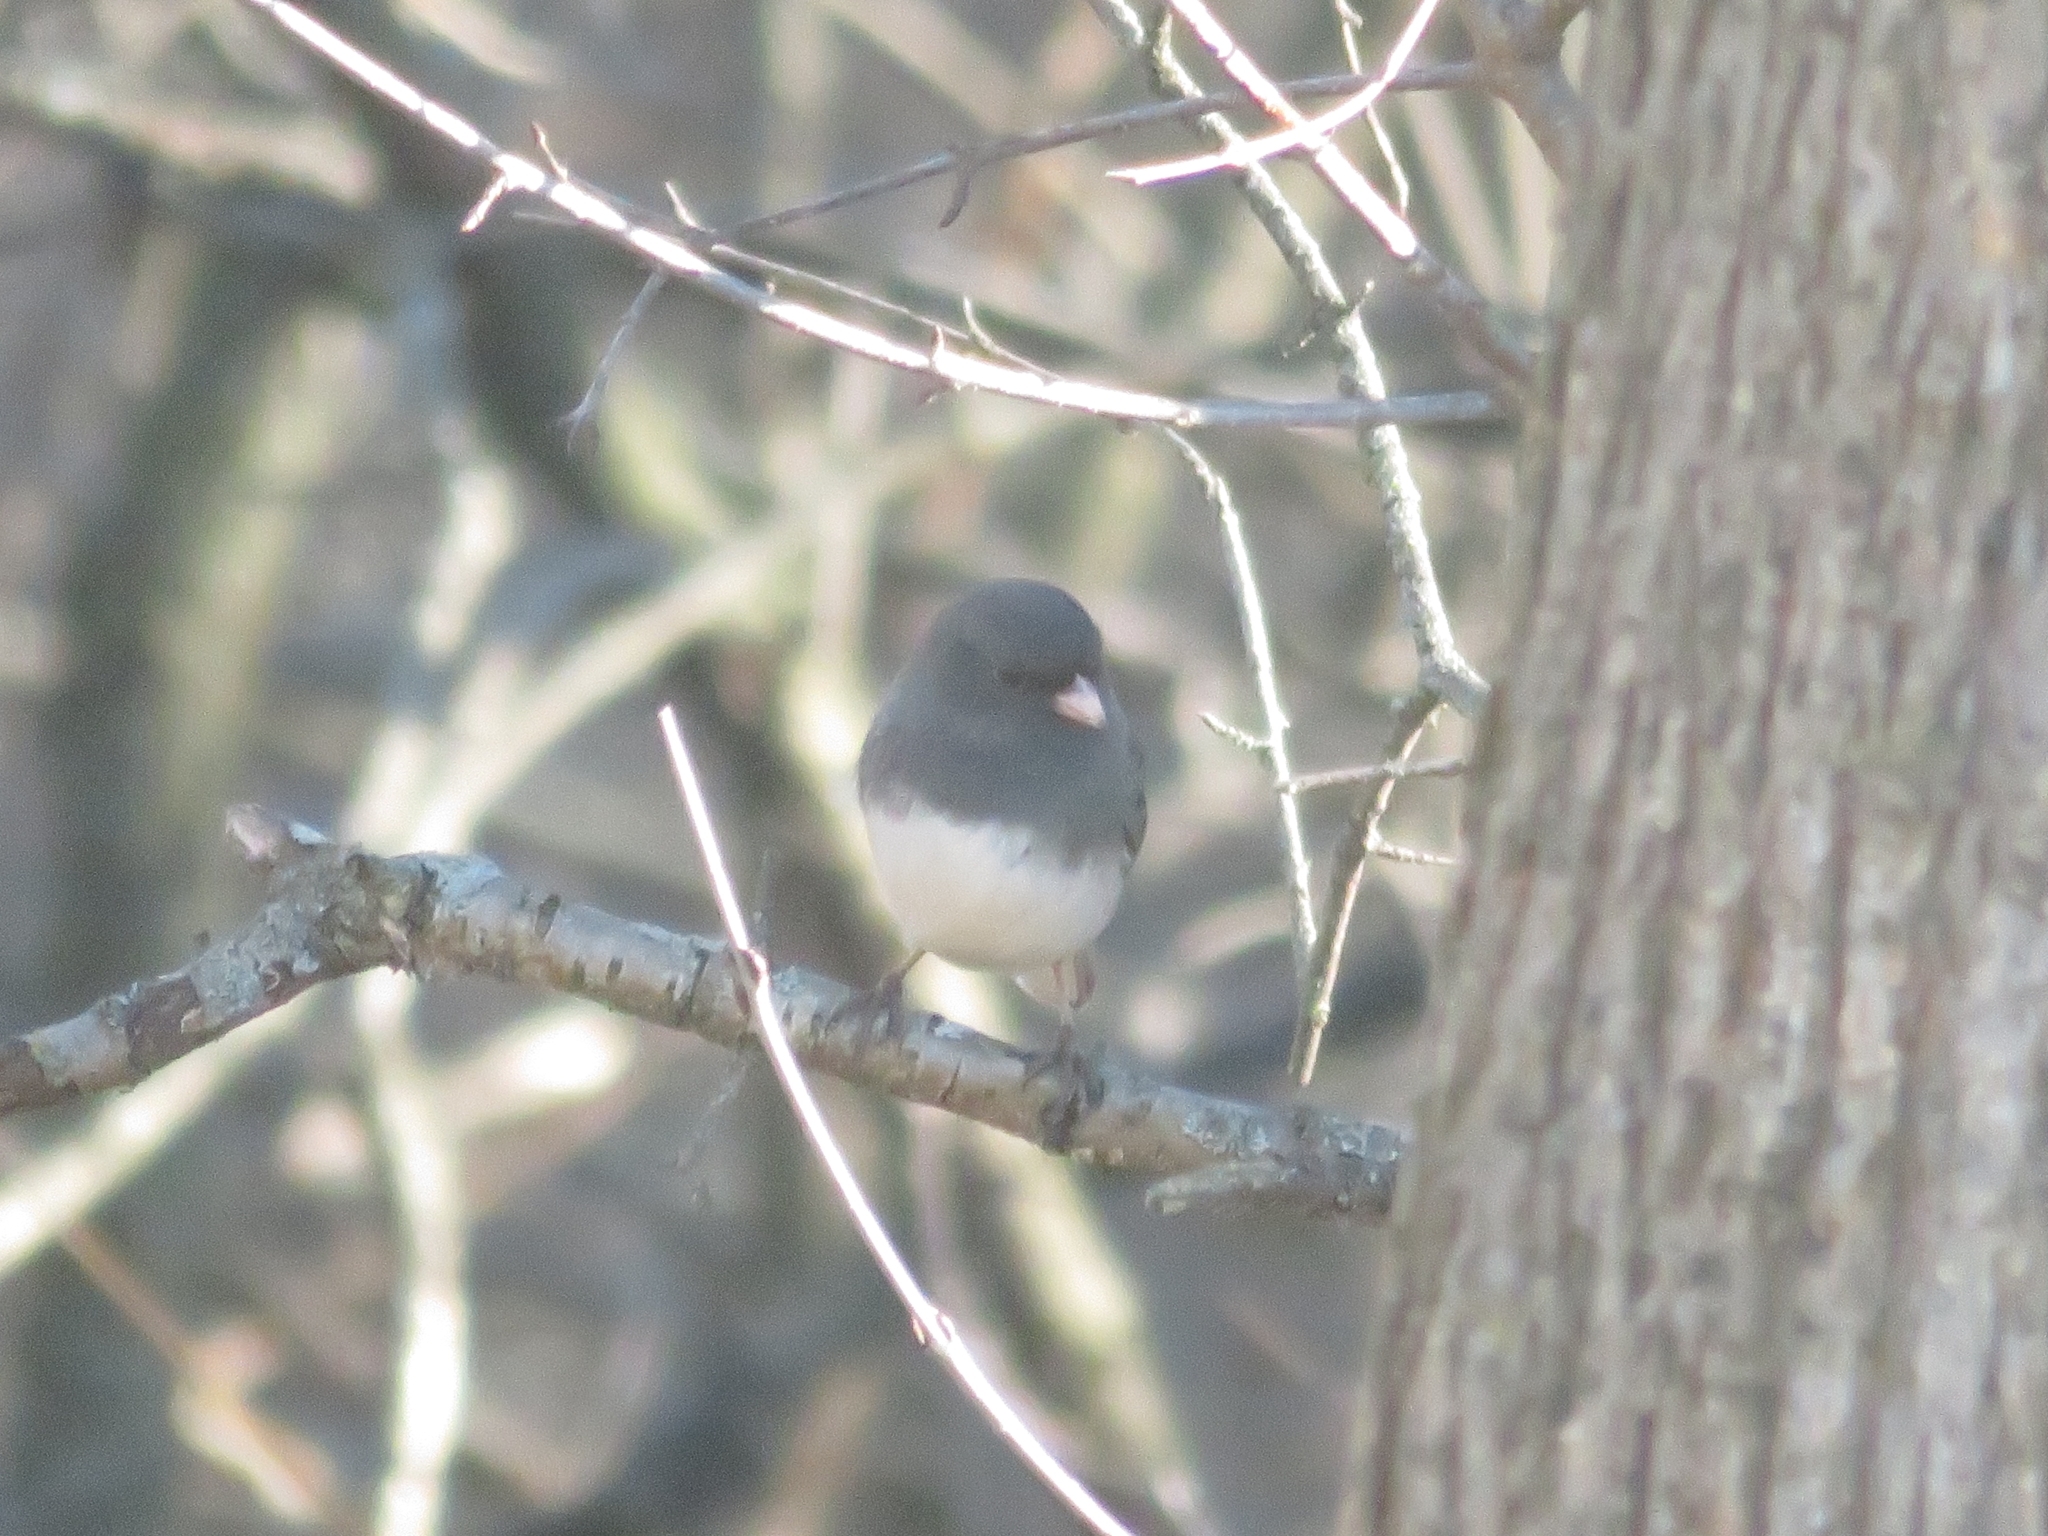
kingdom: Animalia
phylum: Chordata
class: Aves
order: Passeriformes
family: Passerellidae
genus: Junco
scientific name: Junco hyemalis
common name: Dark-eyed junco
